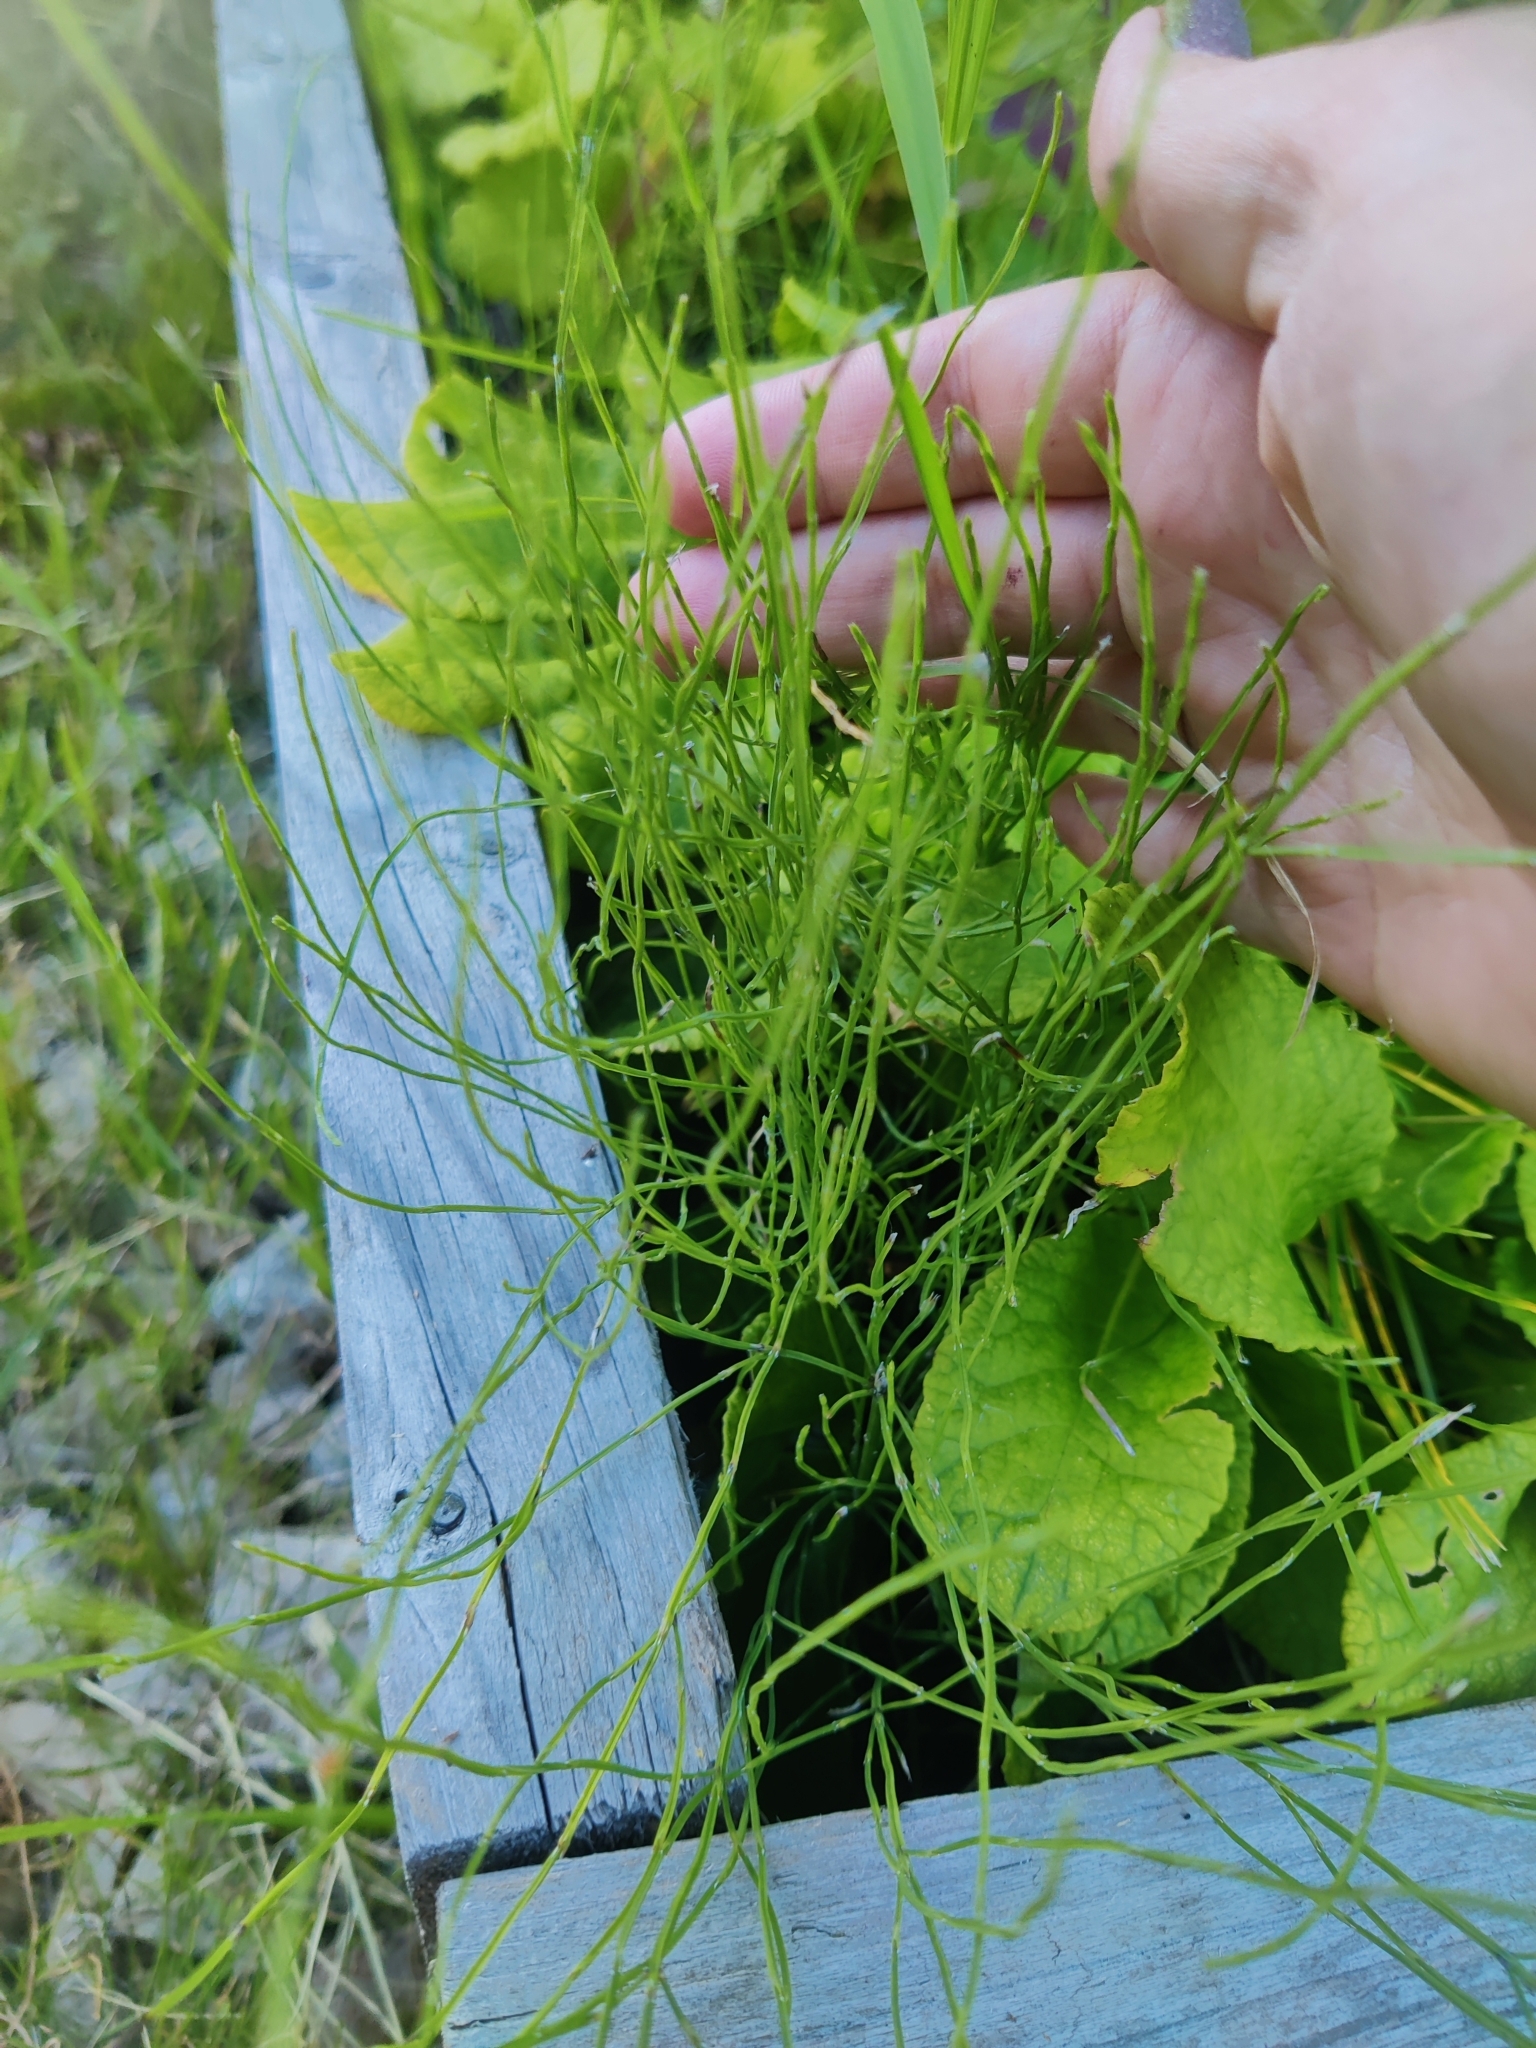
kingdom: Plantae
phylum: Tracheophyta
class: Polypodiopsida
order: Equisetales
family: Equisetaceae
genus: Equisetum
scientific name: Equisetum arvense
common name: Field horsetail
